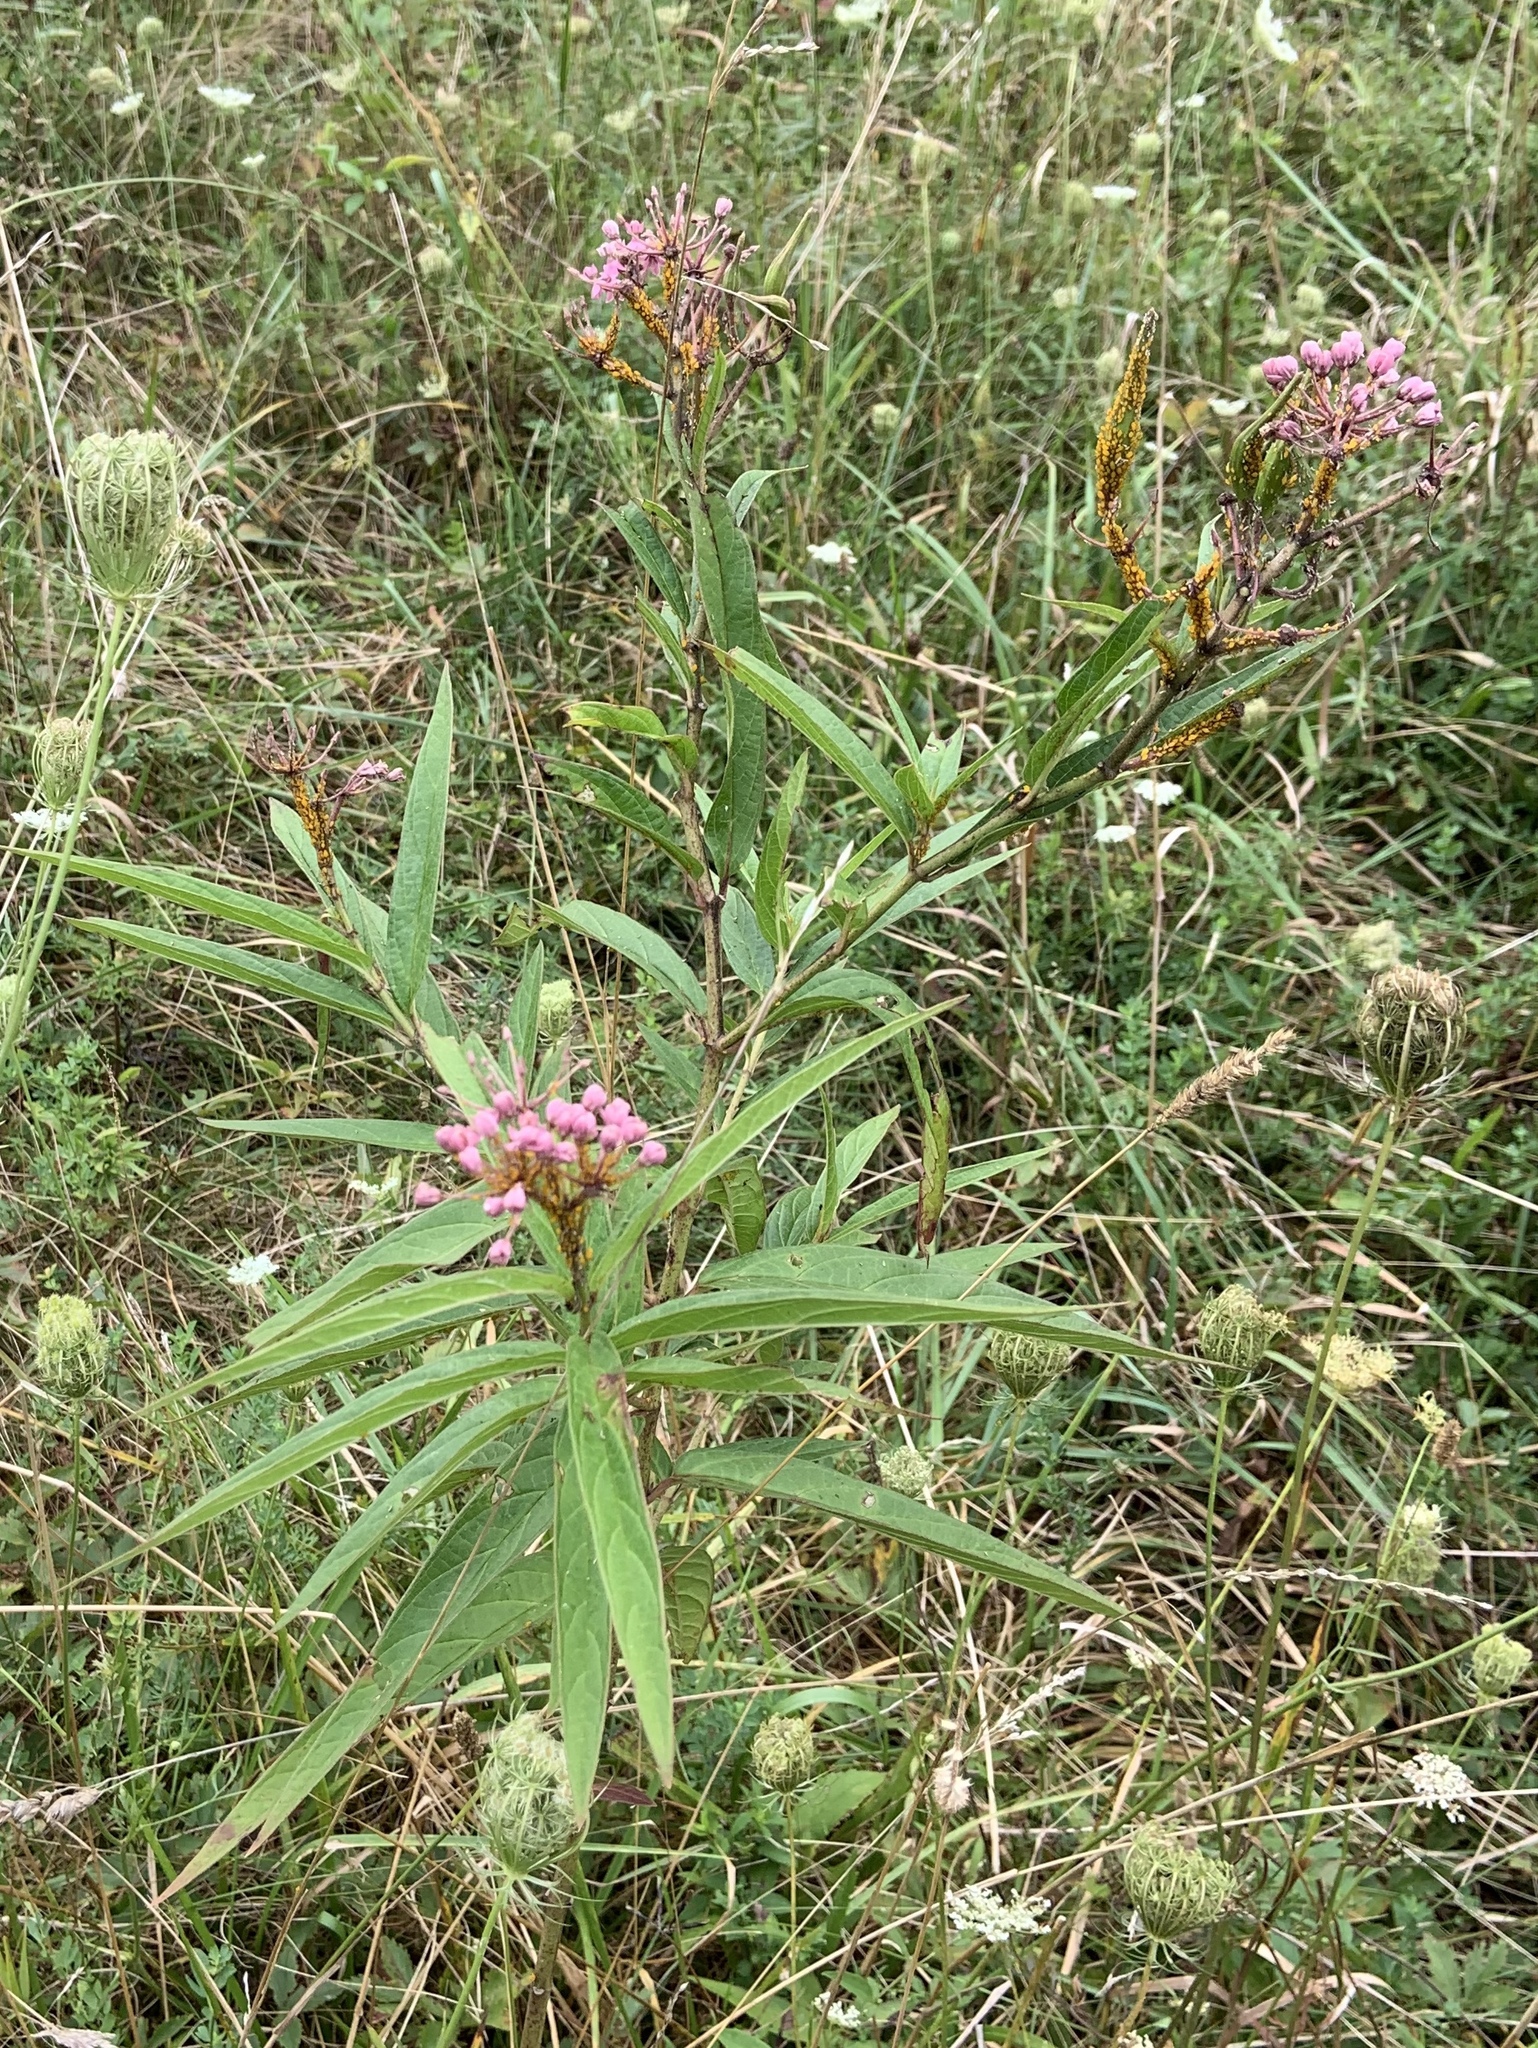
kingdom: Plantae
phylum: Tracheophyta
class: Magnoliopsida
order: Gentianales
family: Apocynaceae
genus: Asclepias
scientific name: Asclepias incarnata
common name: Swamp milkweed
